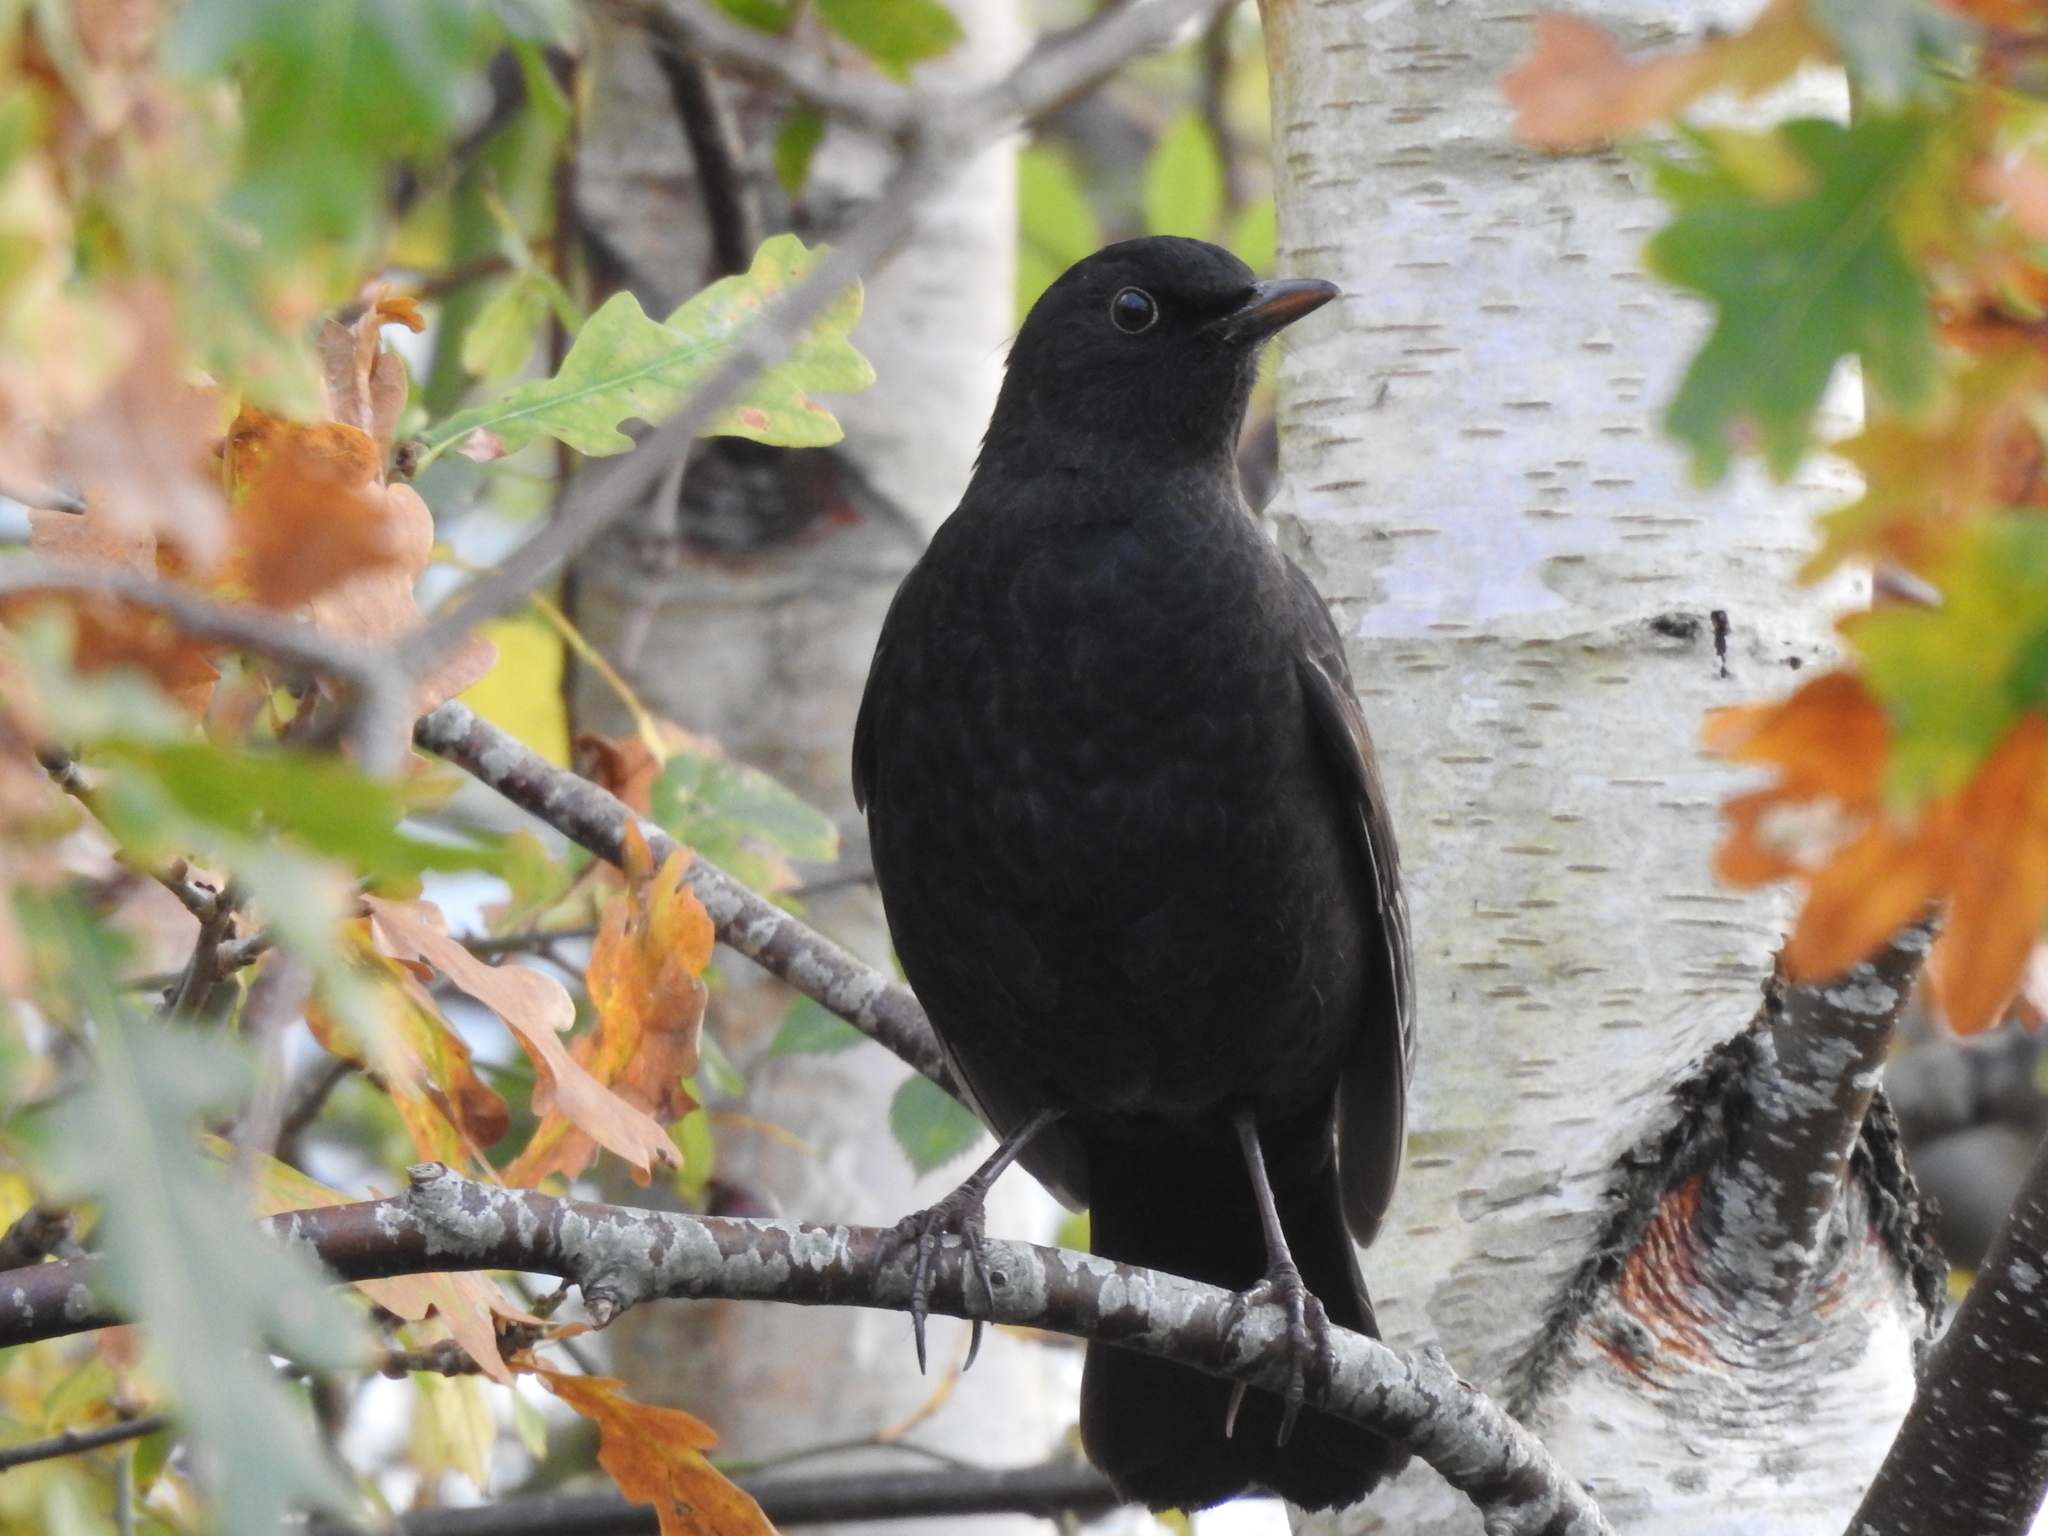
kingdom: Animalia
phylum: Chordata
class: Aves
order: Passeriformes
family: Turdidae
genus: Turdus
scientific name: Turdus merula
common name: Common blackbird
